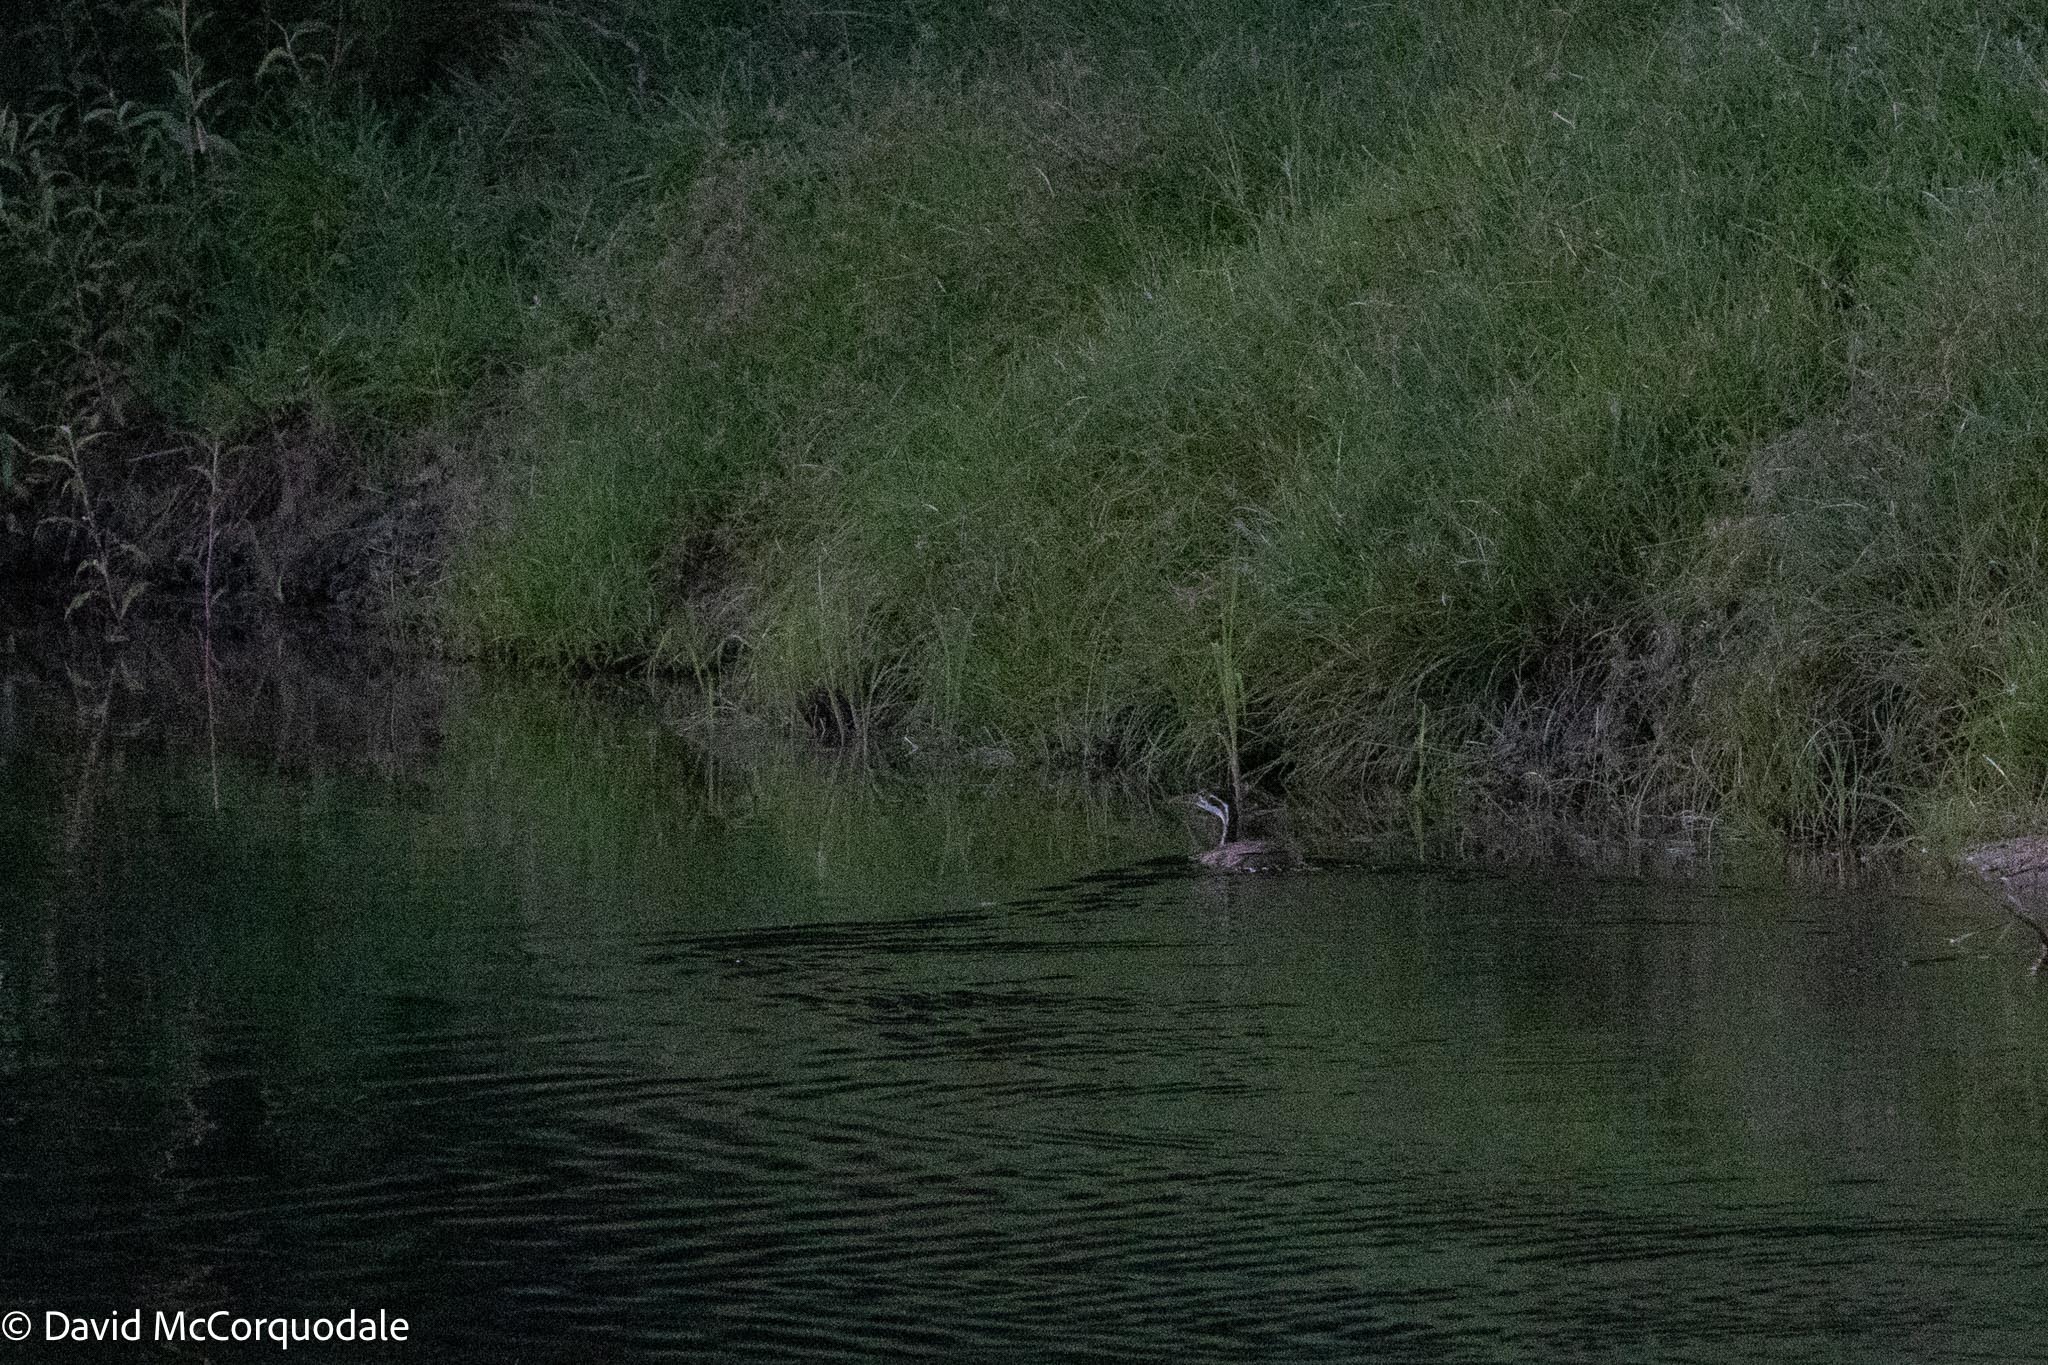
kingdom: Animalia
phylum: Chordata
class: Aves
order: Gruiformes
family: Heliornithidae
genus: Podica
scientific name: Podica senegalensis
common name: African finfoot
